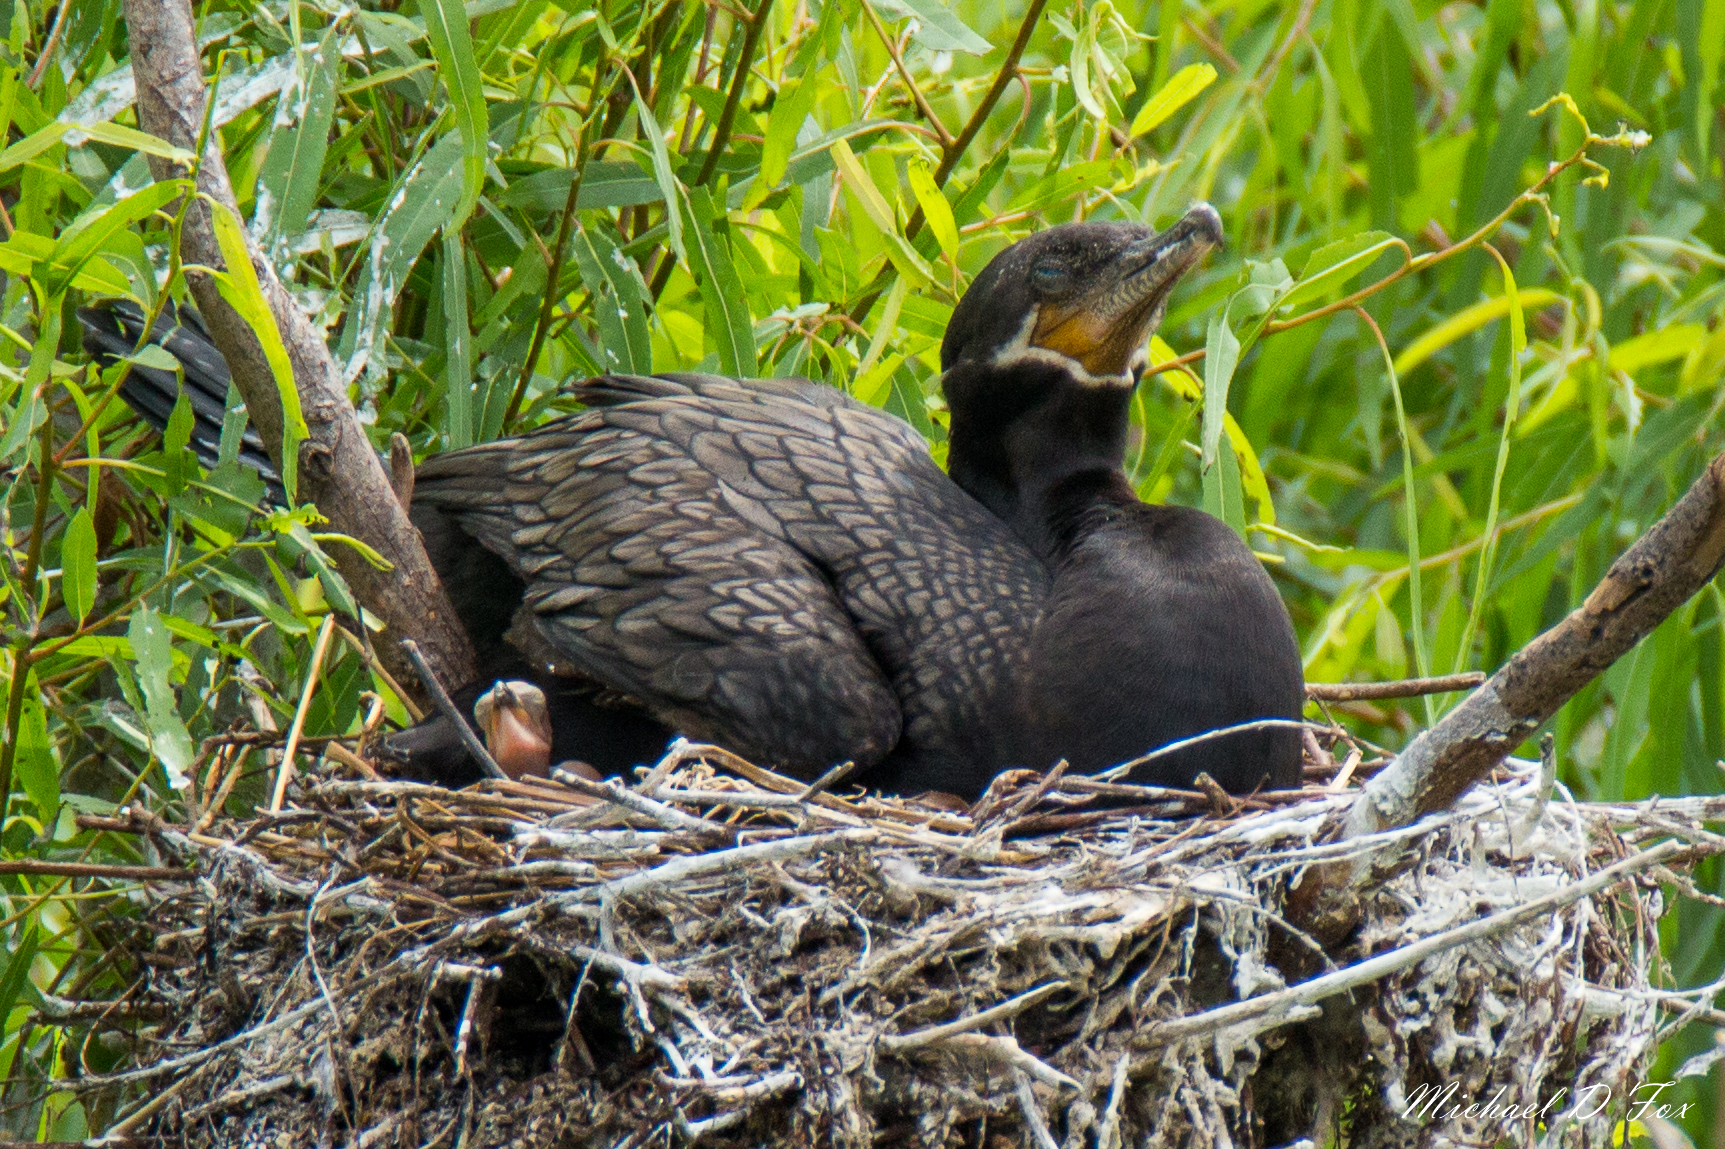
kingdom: Animalia
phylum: Chordata
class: Aves
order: Suliformes
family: Phalacrocoracidae
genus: Phalacrocorax
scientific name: Phalacrocorax brasilianus
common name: Neotropic cormorant
